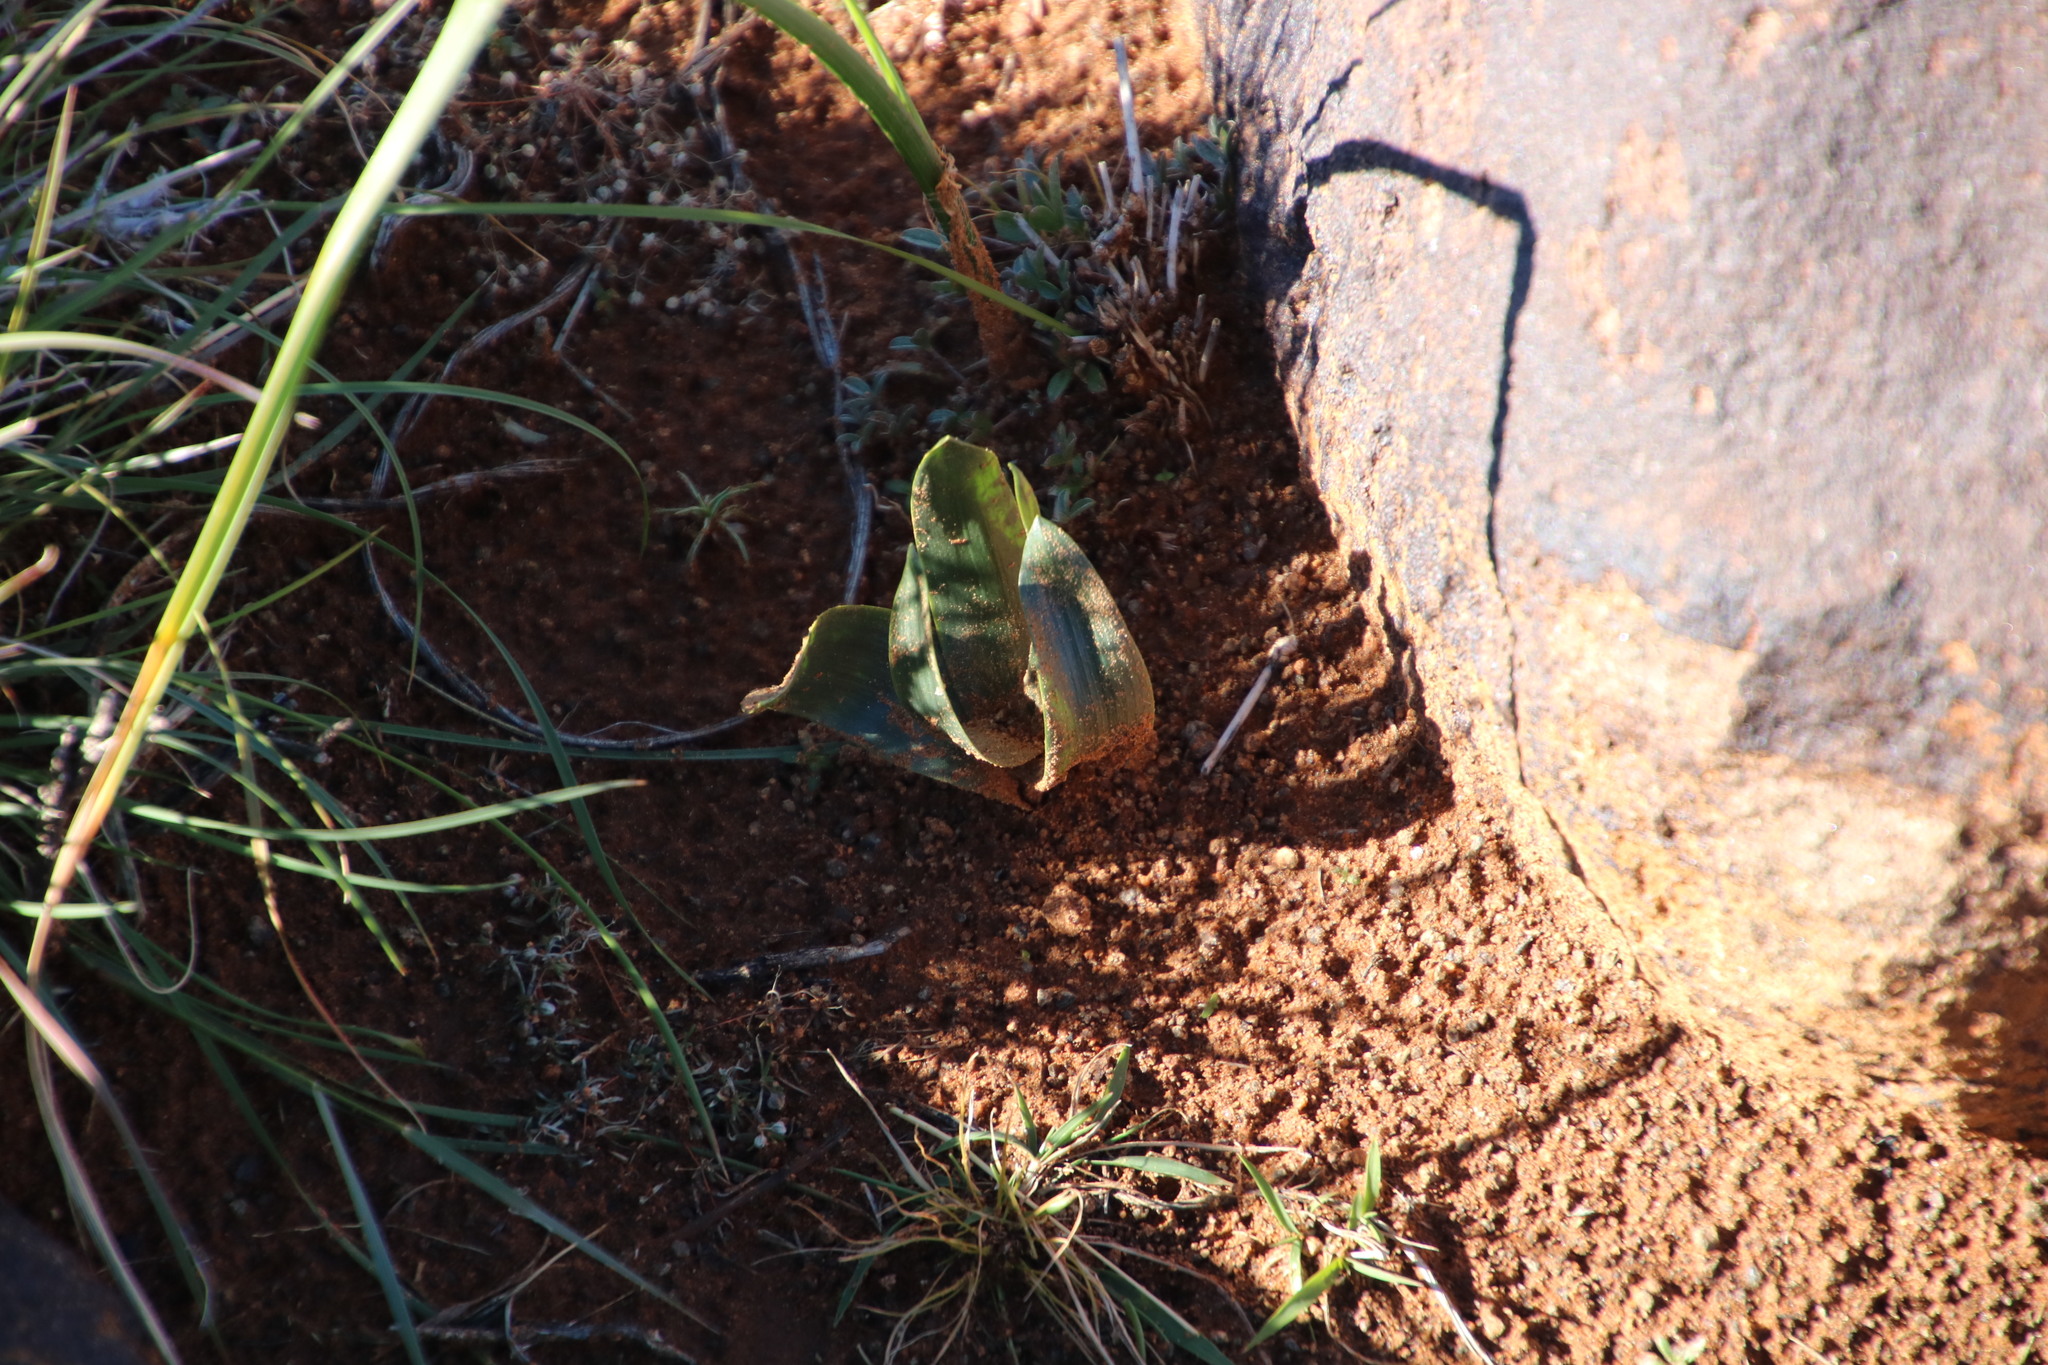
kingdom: Plantae
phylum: Tracheophyta
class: Liliopsida
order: Asparagales
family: Asparagaceae
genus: Fusifilum
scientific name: Fusifilum physodes
